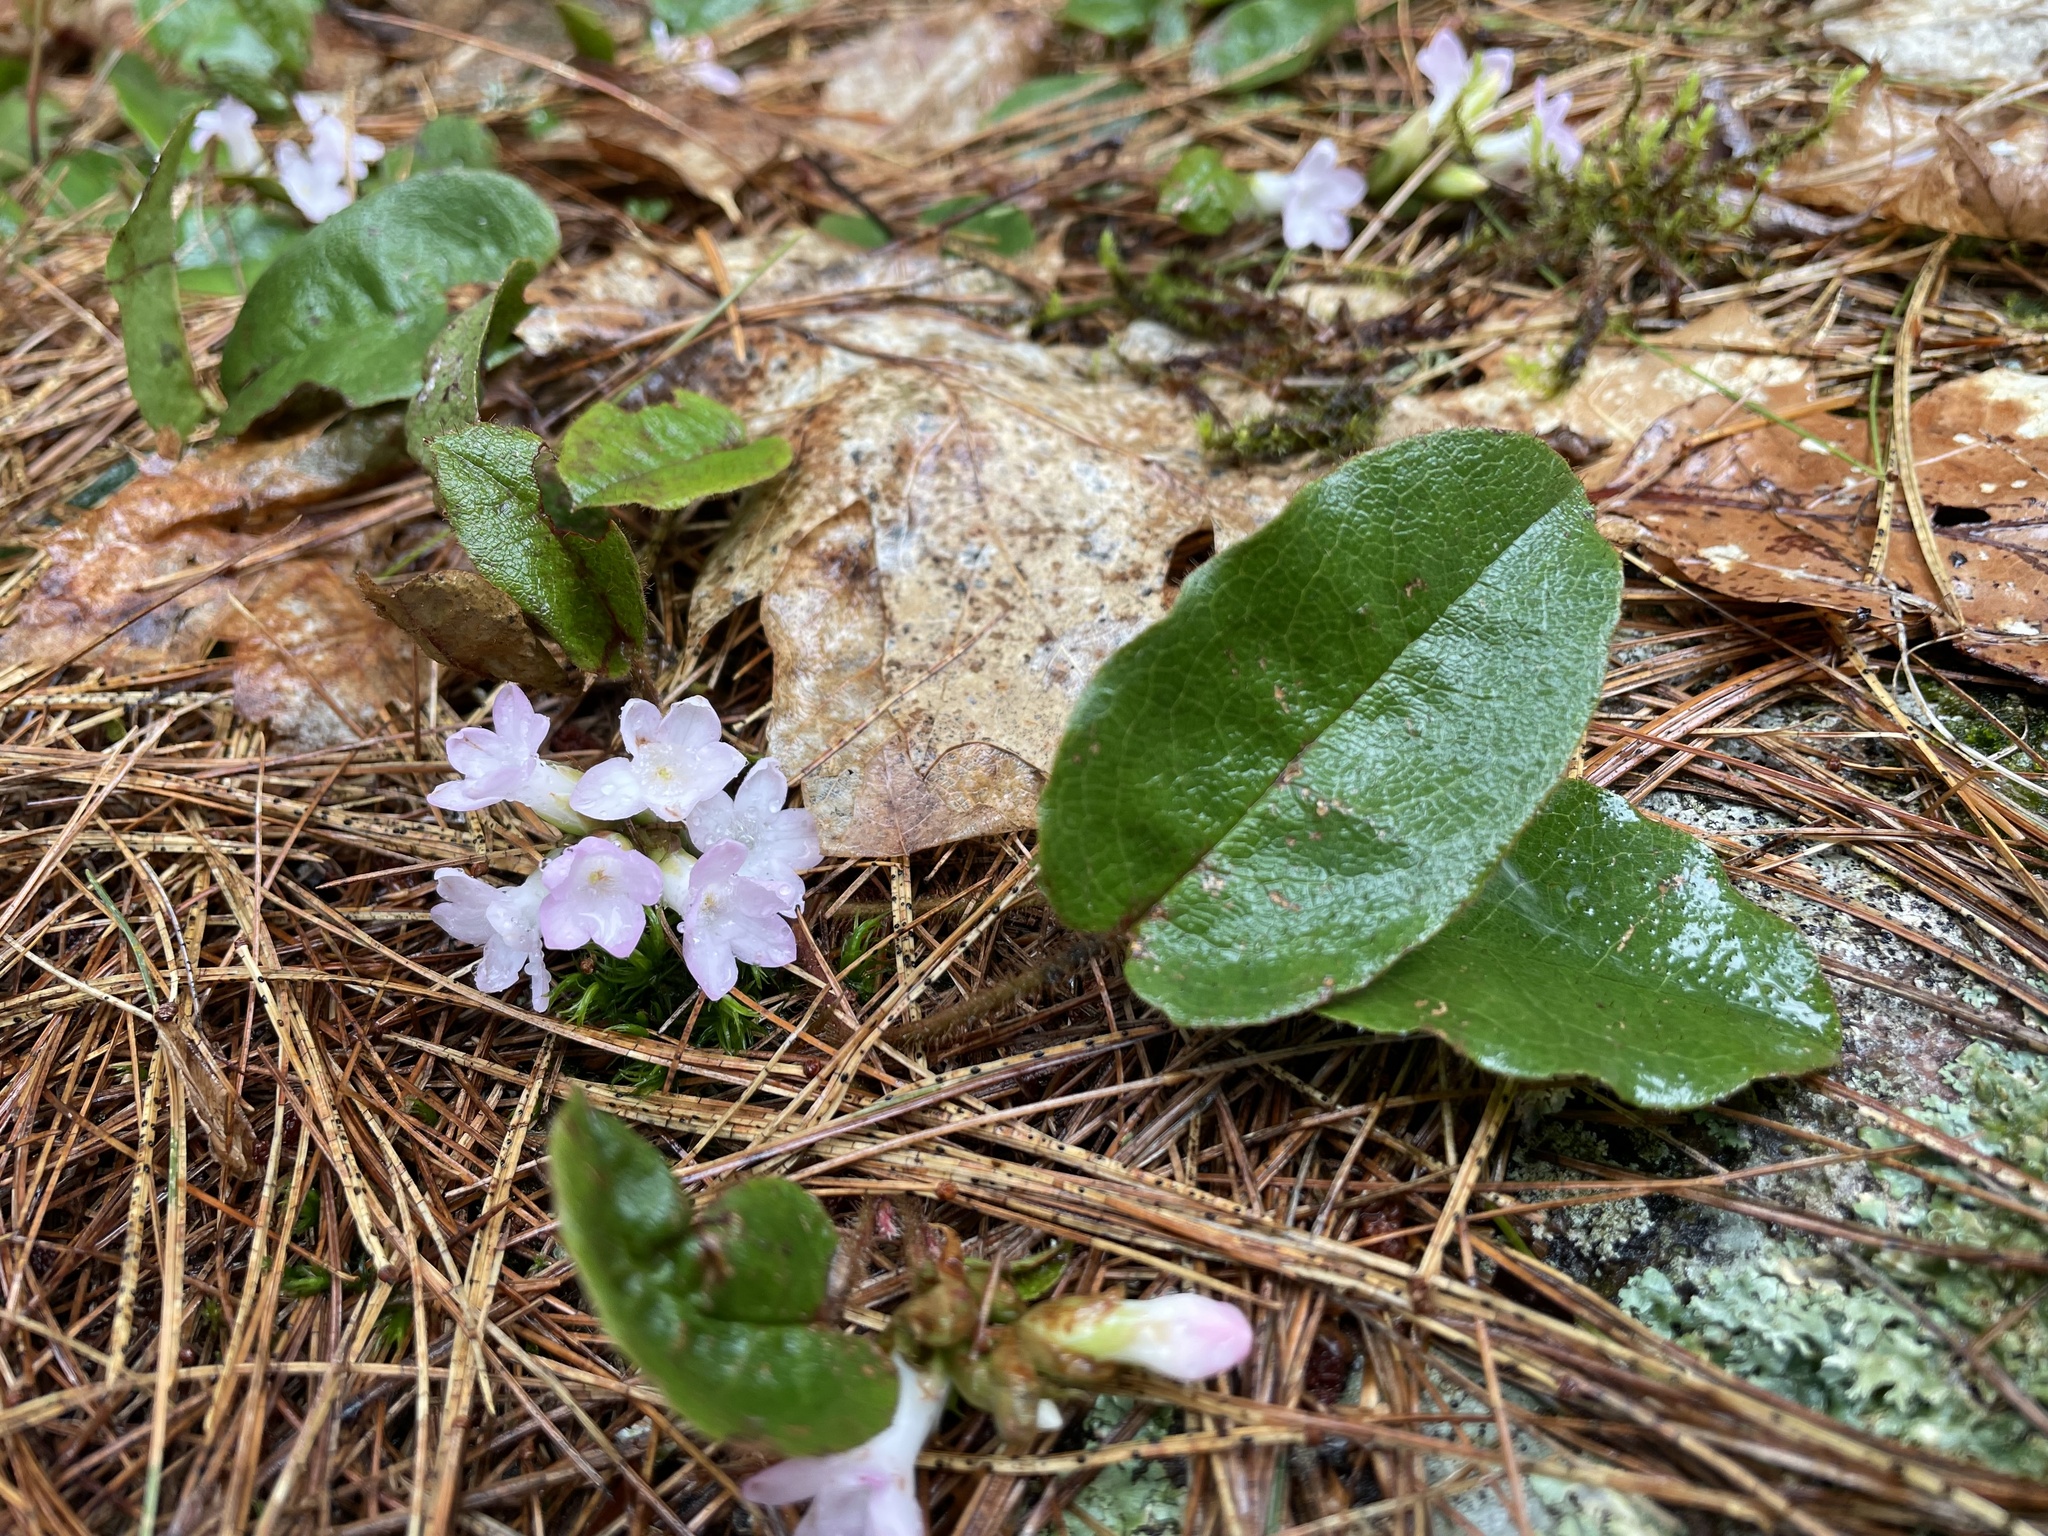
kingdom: Plantae
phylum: Tracheophyta
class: Magnoliopsida
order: Ericales
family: Ericaceae
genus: Epigaea
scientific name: Epigaea repens
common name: Gravelroot
